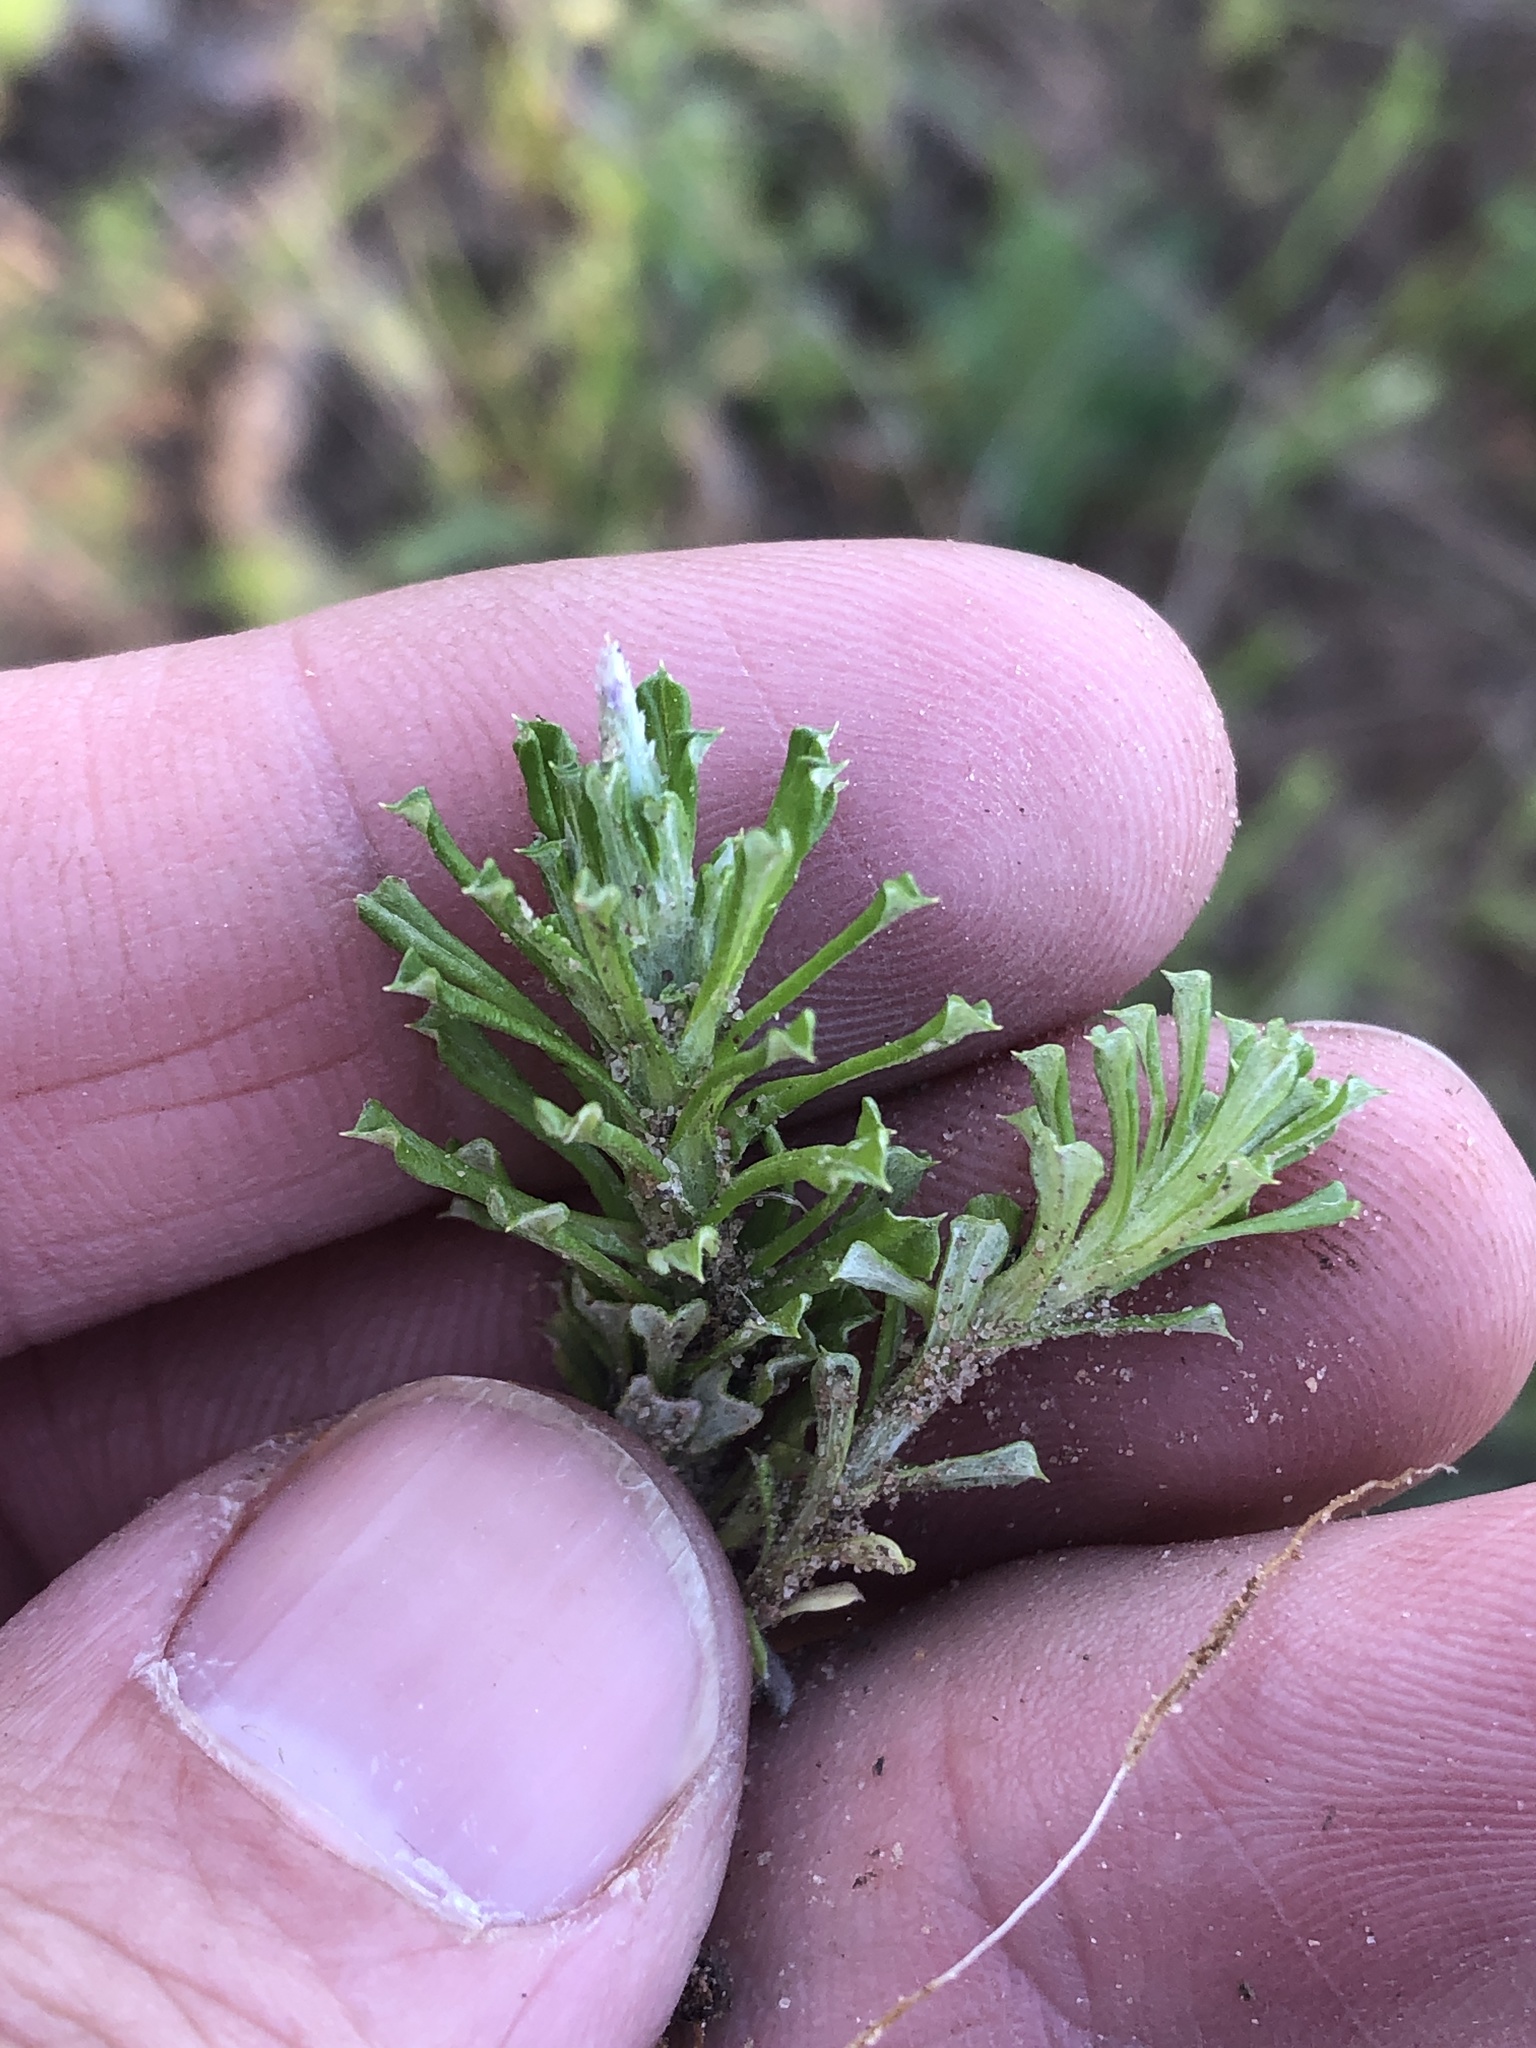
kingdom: Plantae
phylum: Tracheophyta
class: Magnoliopsida
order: Asterales
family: Asteraceae
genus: Facelis
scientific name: Facelis retusa
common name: Annual trampweed
